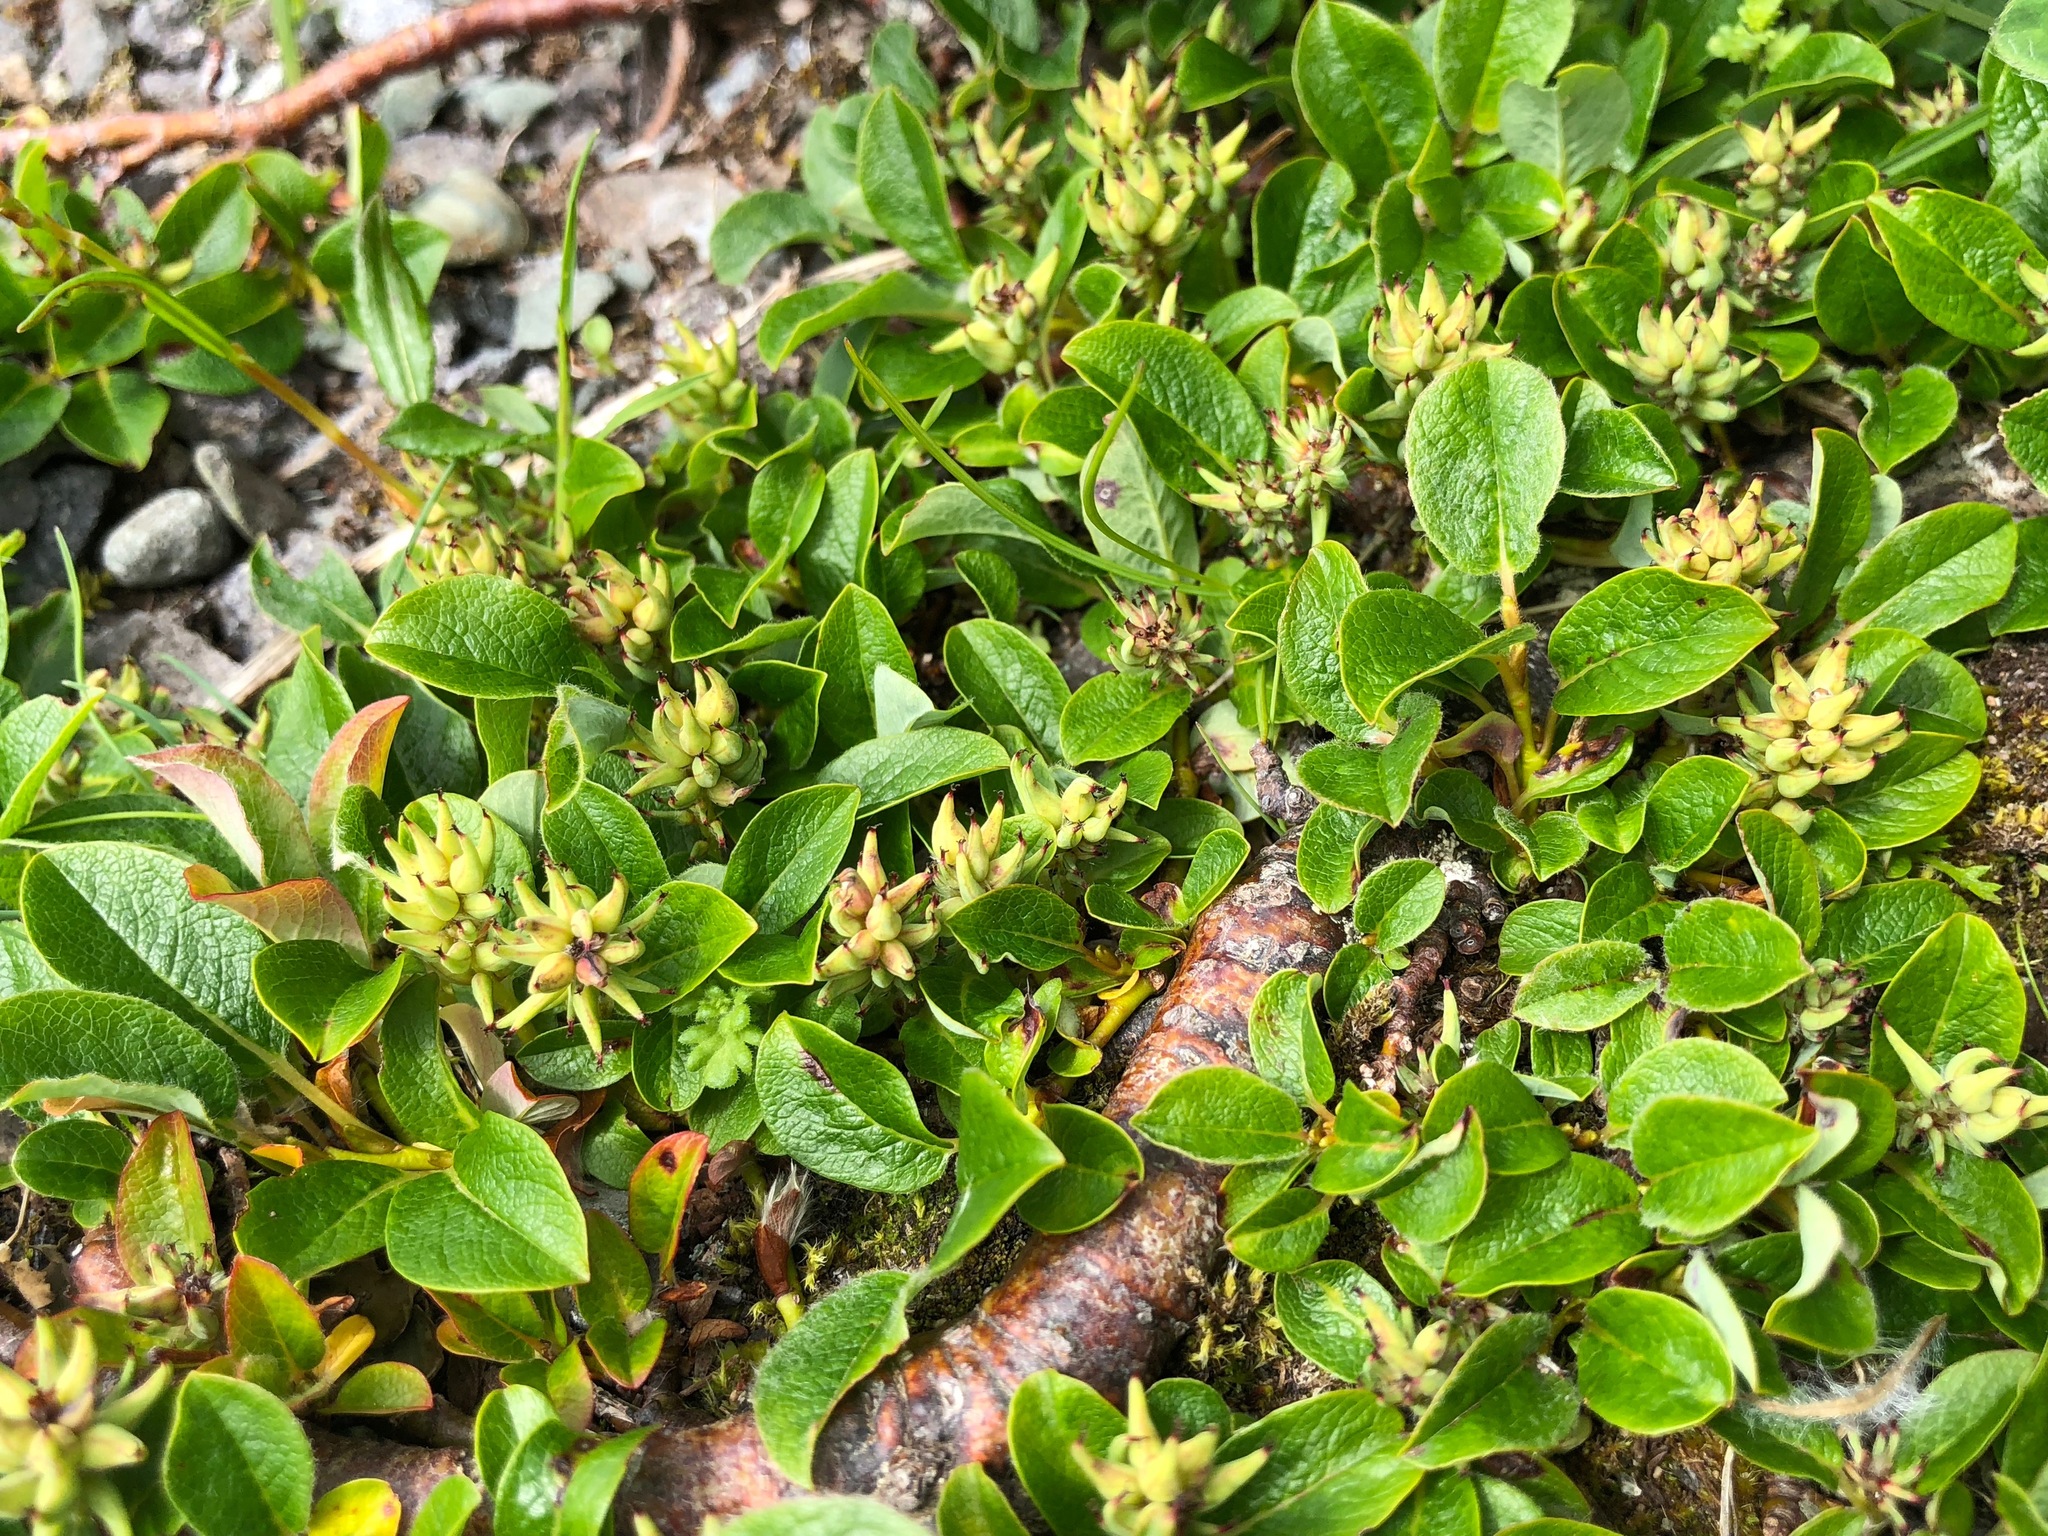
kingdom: Plantae
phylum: Tracheophyta
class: Magnoliopsida
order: Malpighiales
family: Salicaceae
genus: Salix
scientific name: Salix ovalifolia
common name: Arctic seashore willow
